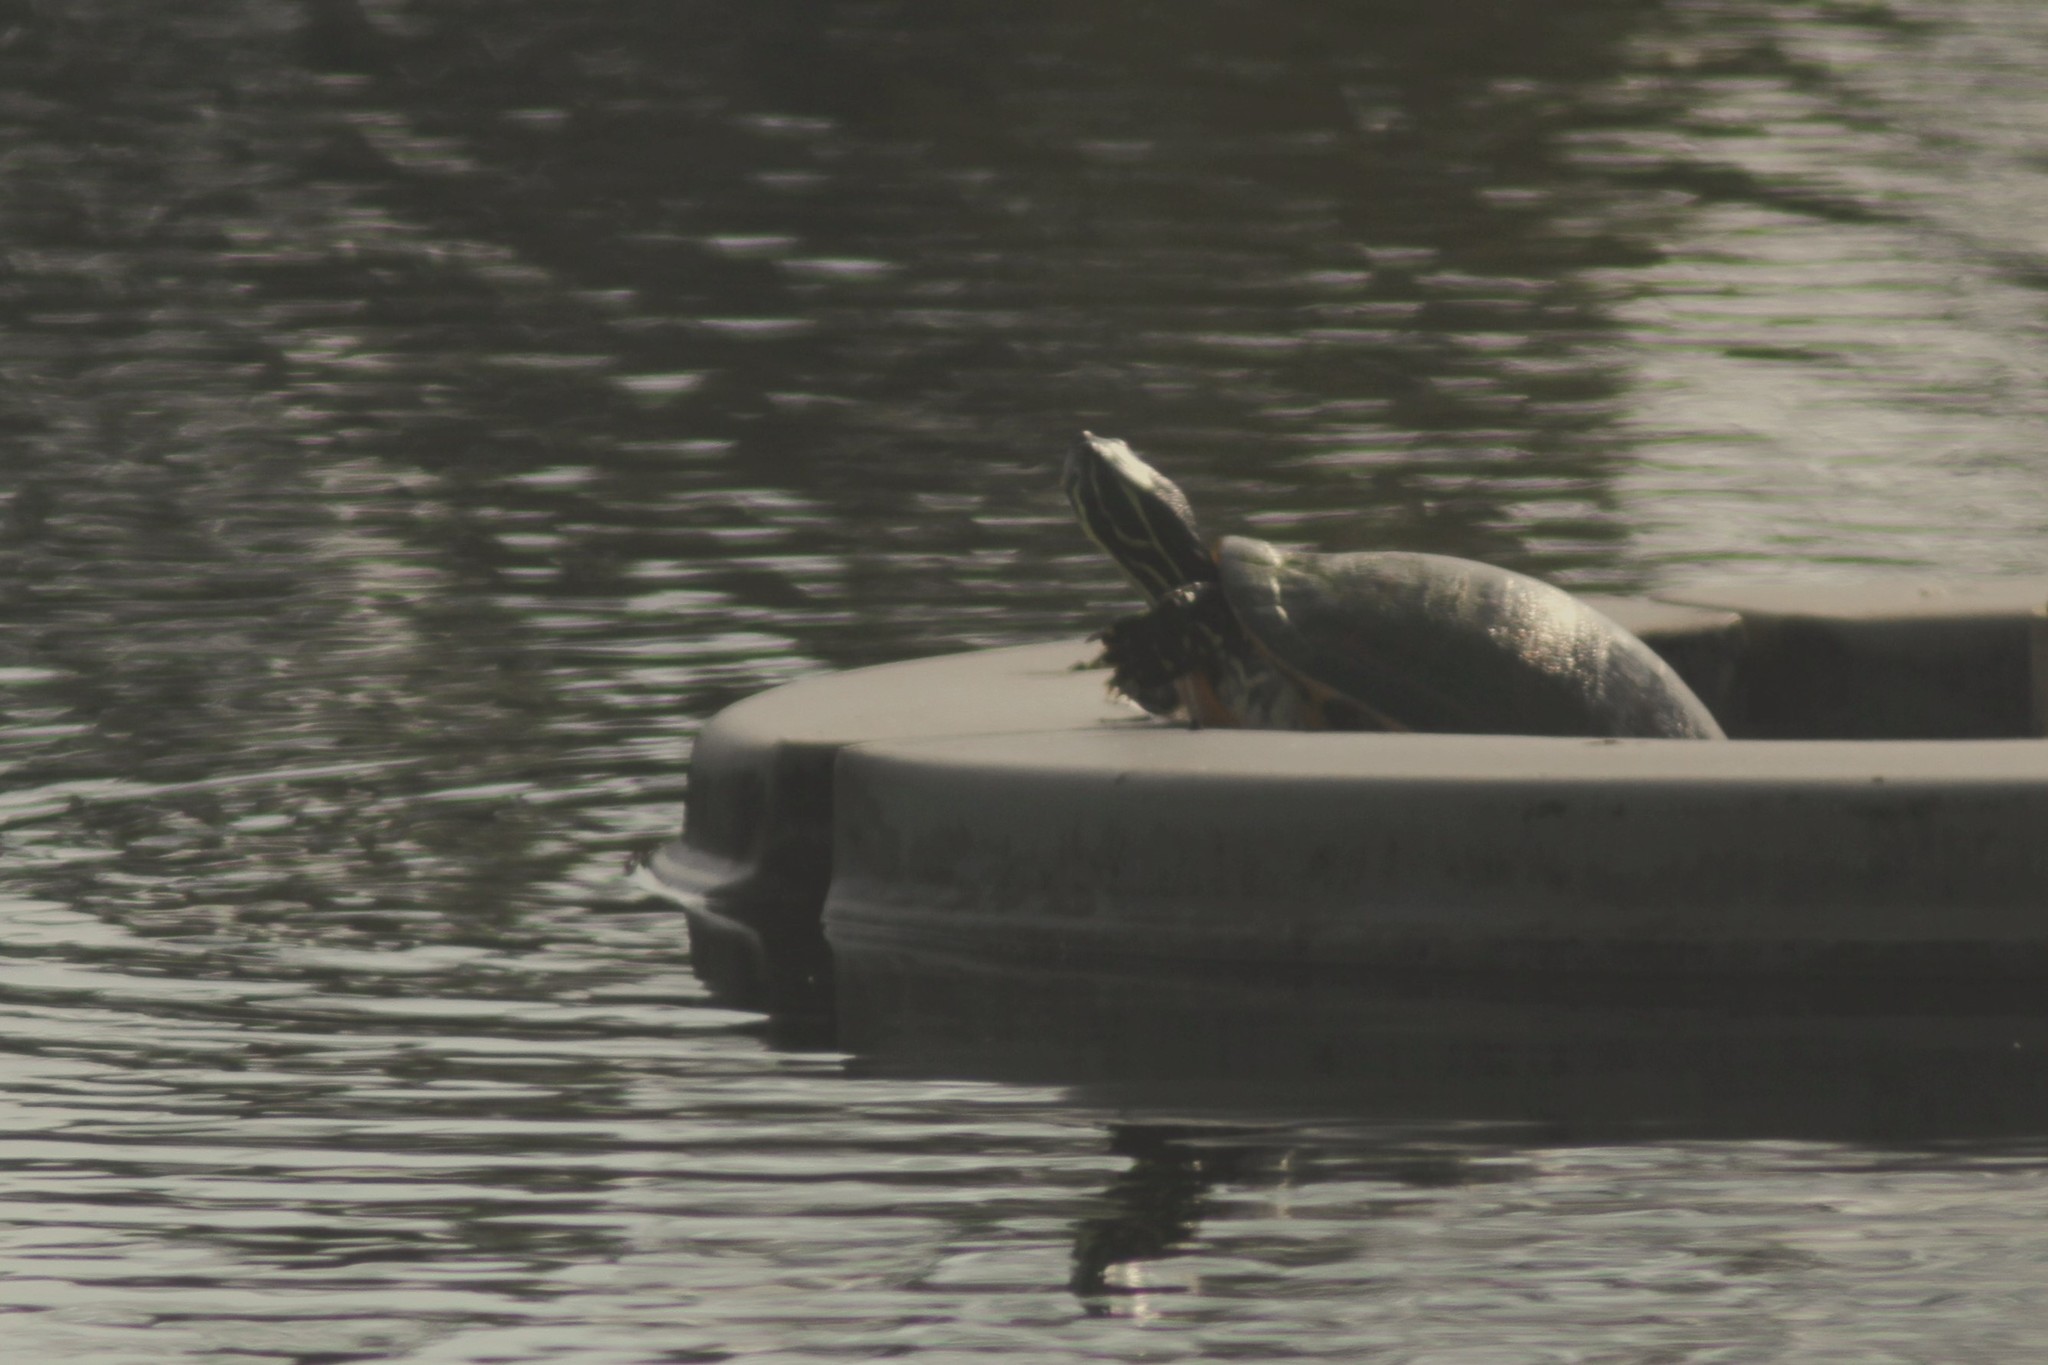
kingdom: Animalia
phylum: Chordata
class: Testudines
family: Emydidae
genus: Pseudemys
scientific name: Pseudemys peninsularis
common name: Peninsula cooter
